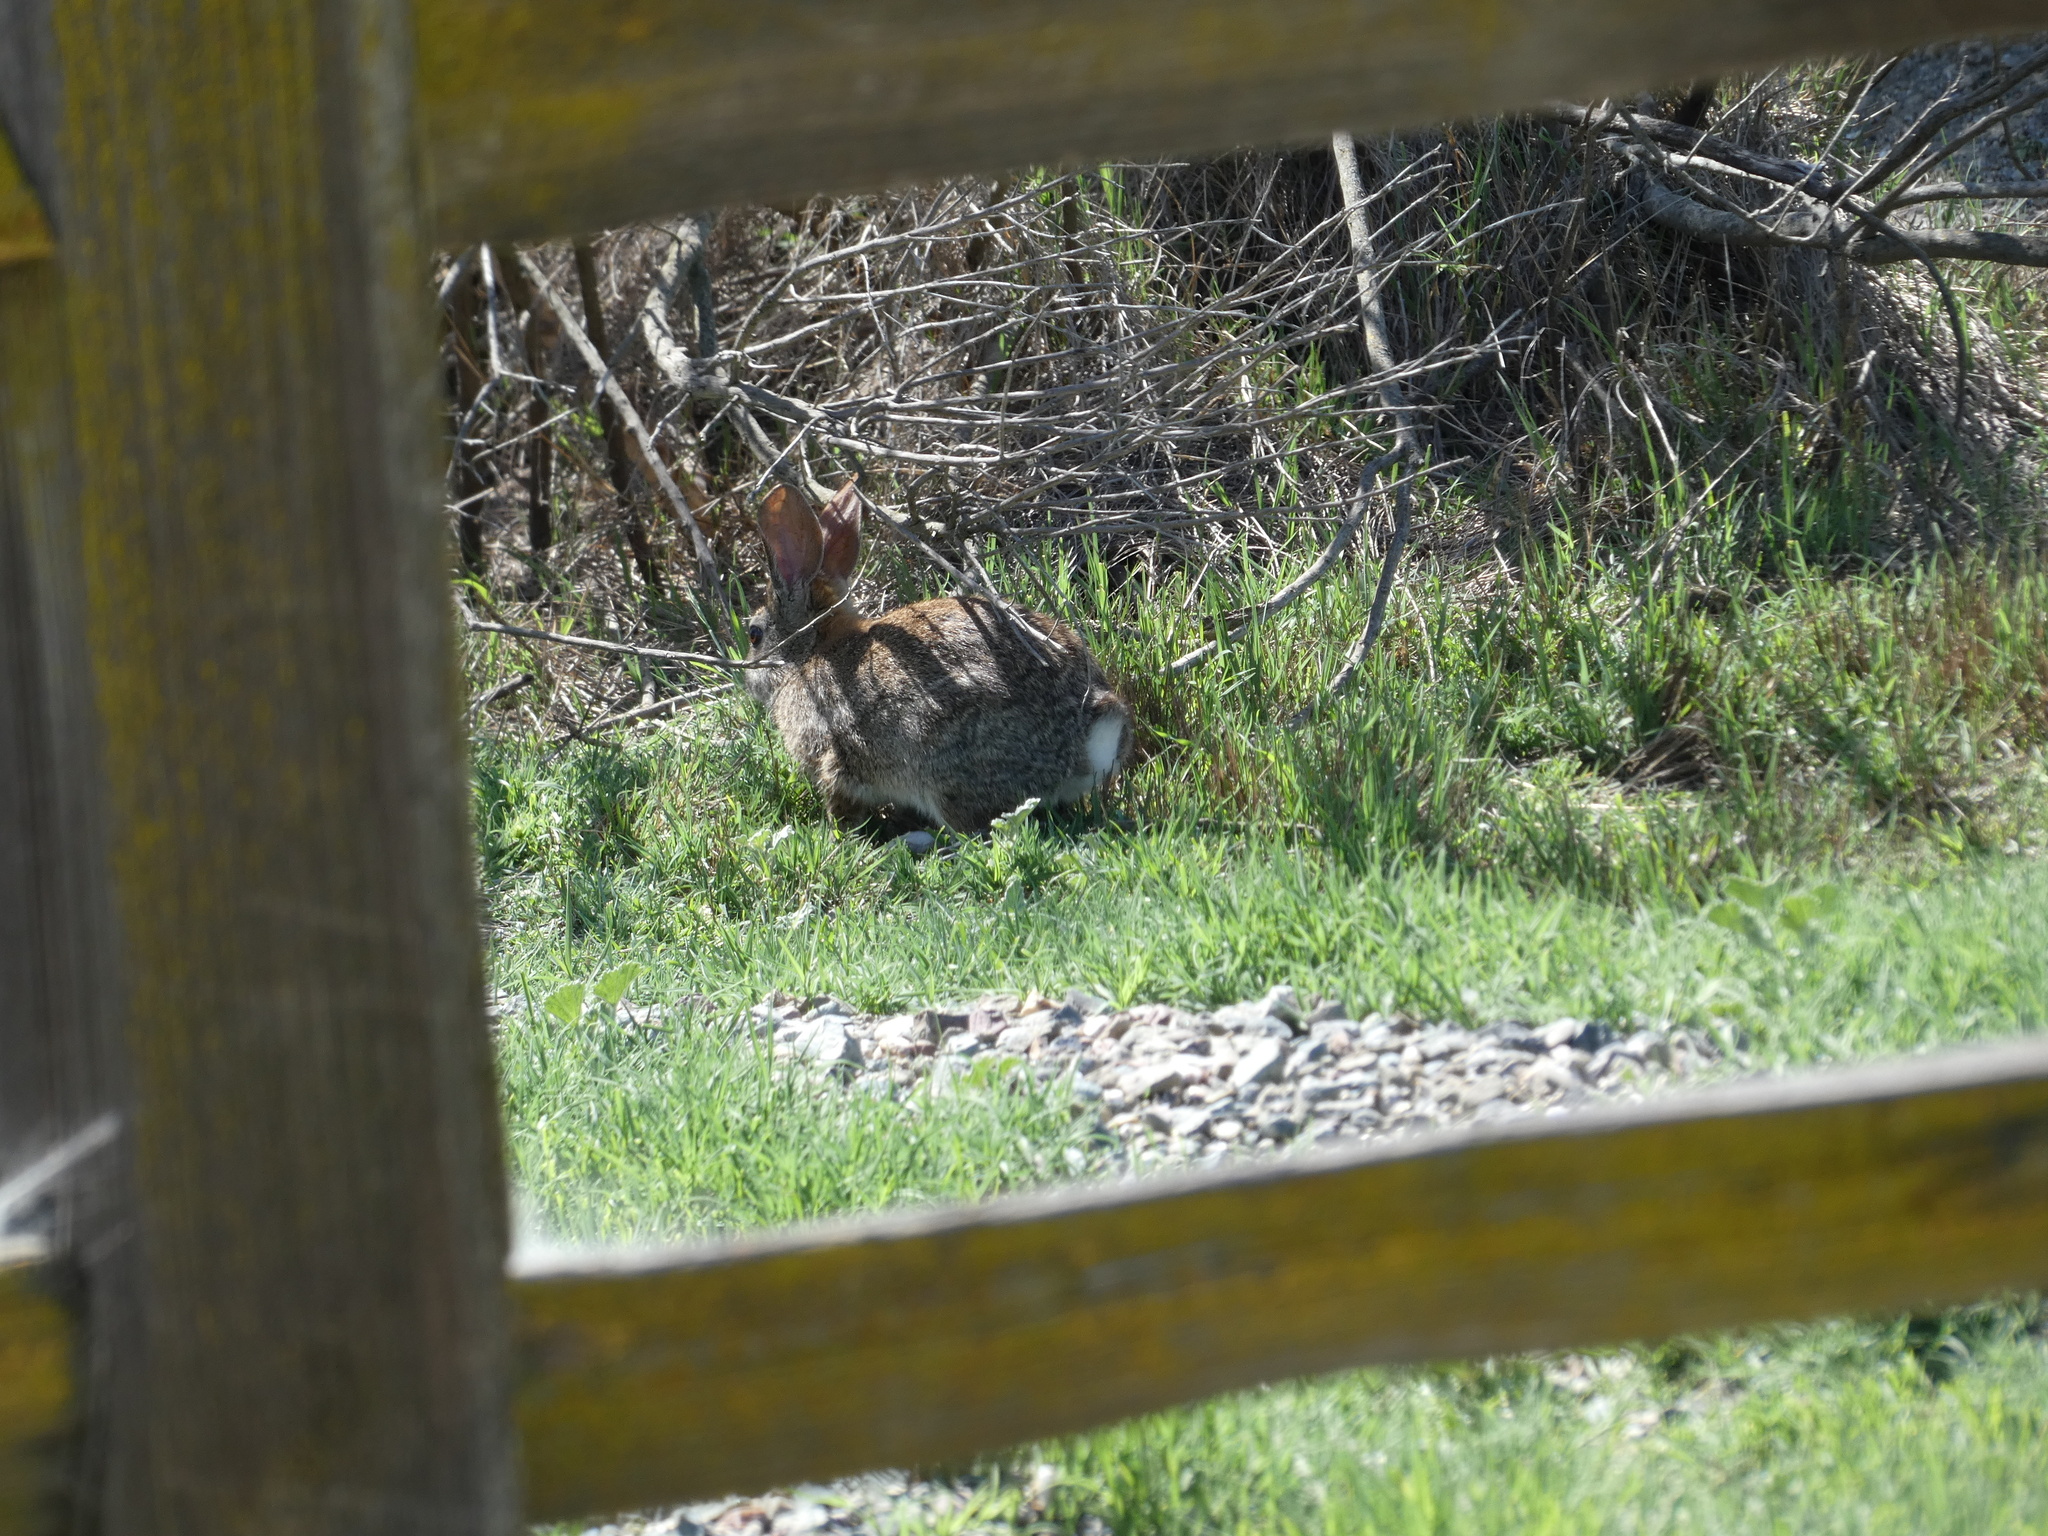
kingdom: Animalia
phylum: Chordata
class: Mammalia
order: Lagomorpha
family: Leporidae
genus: Sylvilagus
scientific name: Sylvilagus audubonii
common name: Desert cottontail
